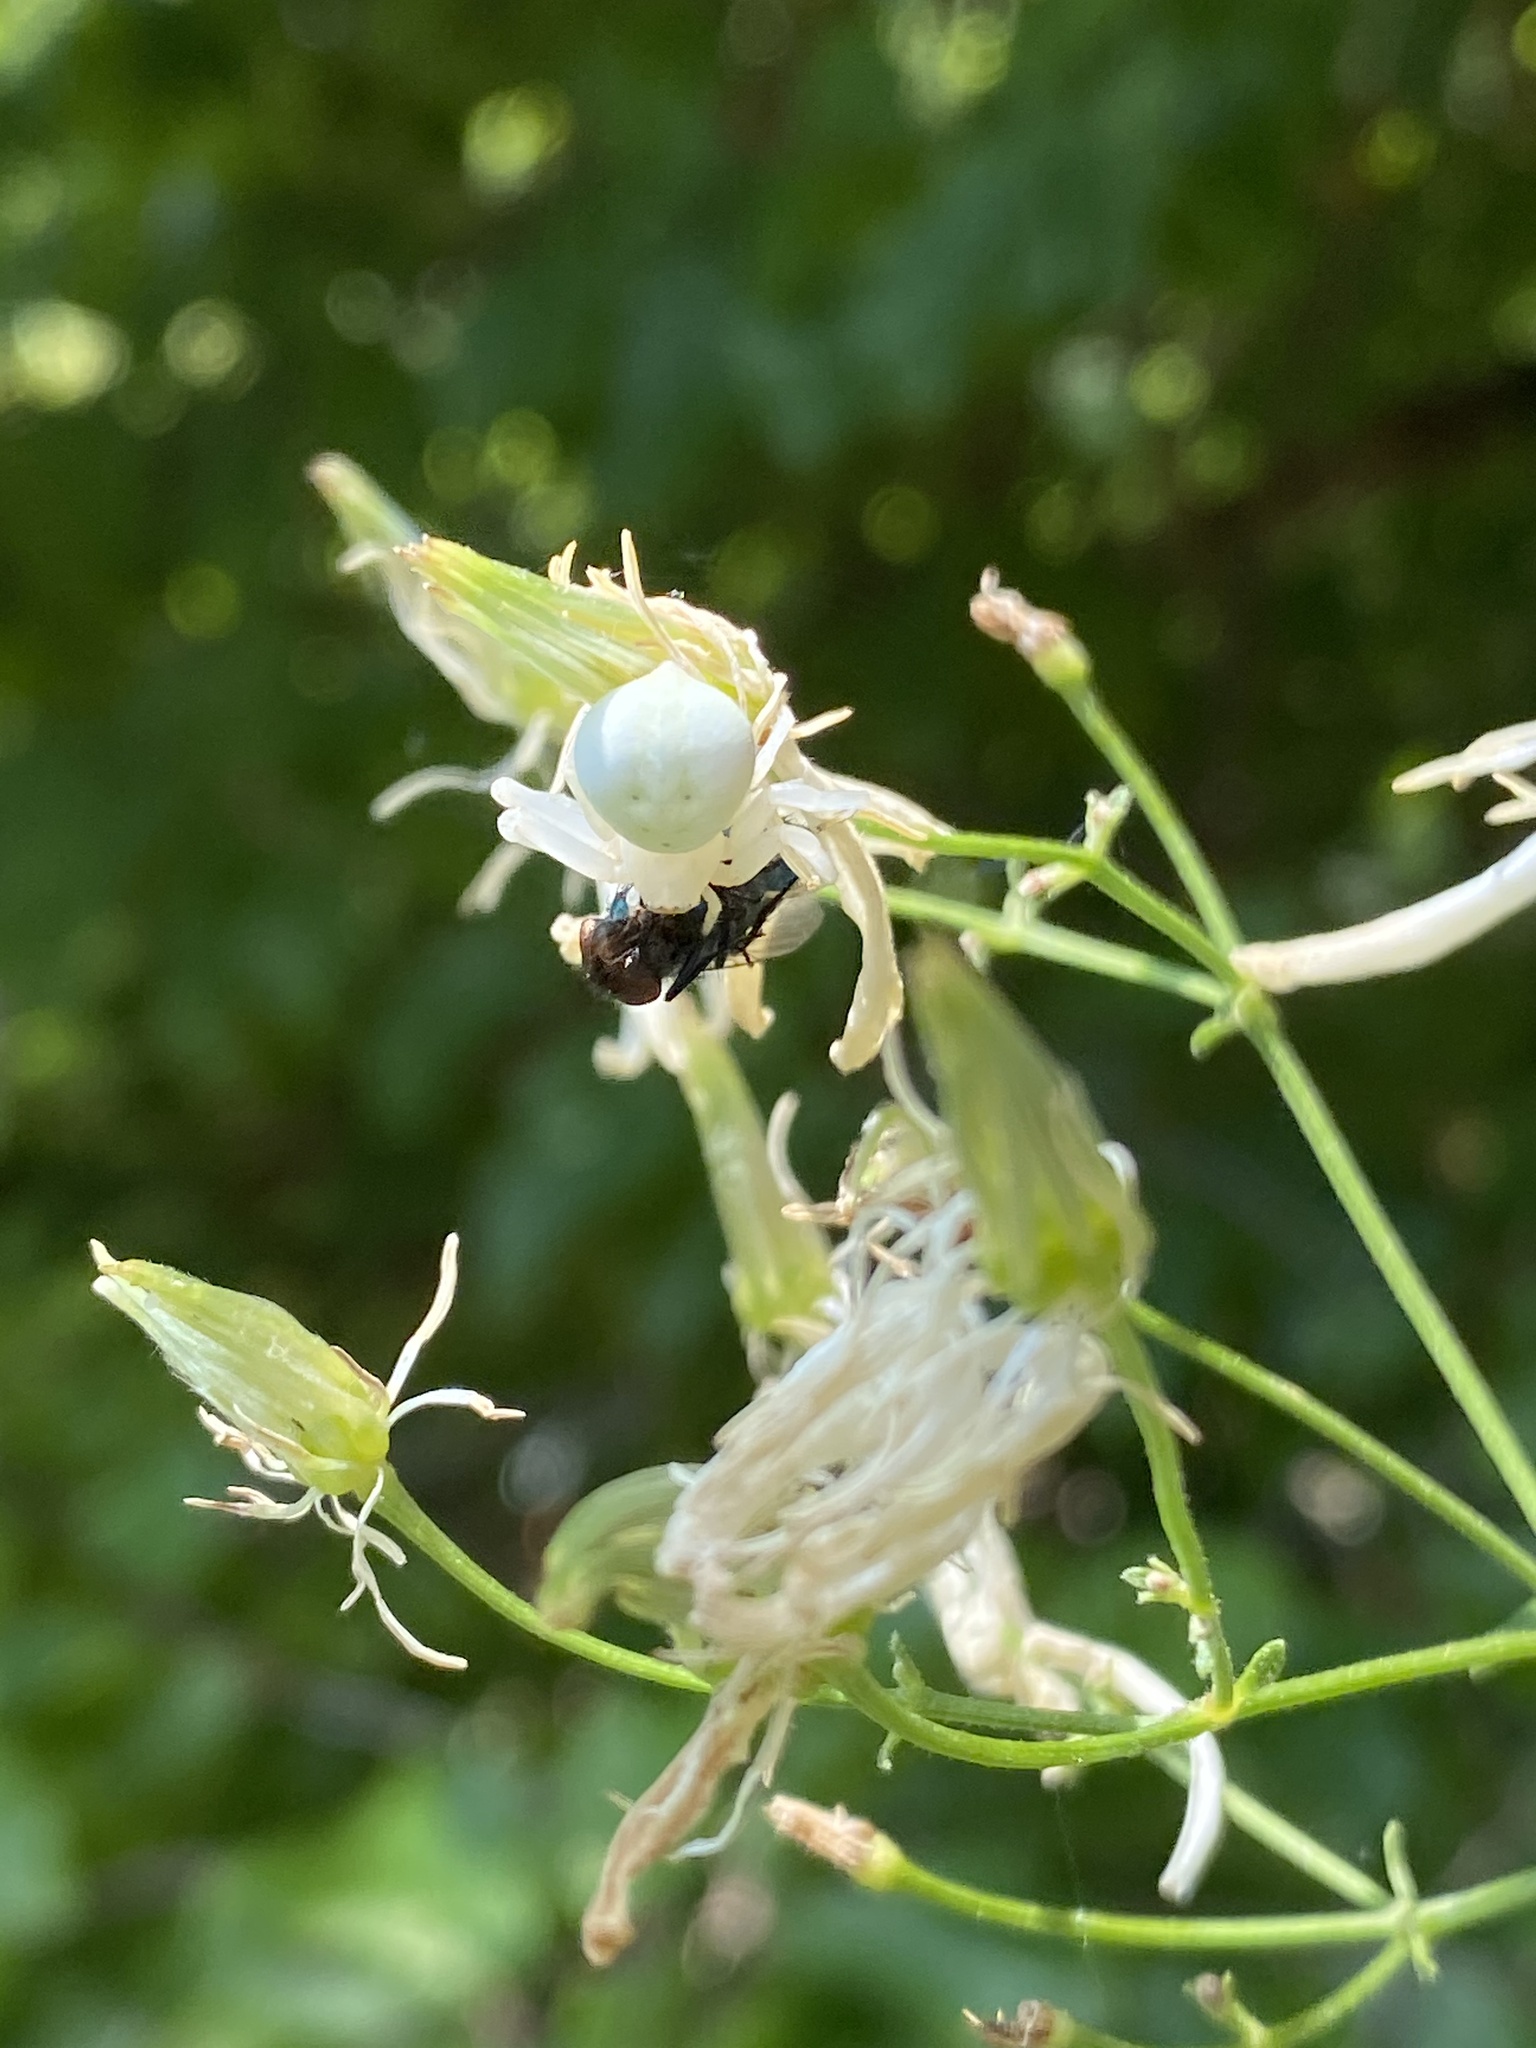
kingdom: Animalia
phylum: Arthropoda
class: Arachnida
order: Araneae
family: Thomisidae
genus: Misumena
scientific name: Misumena vatia
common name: Goldenrod crab spider
